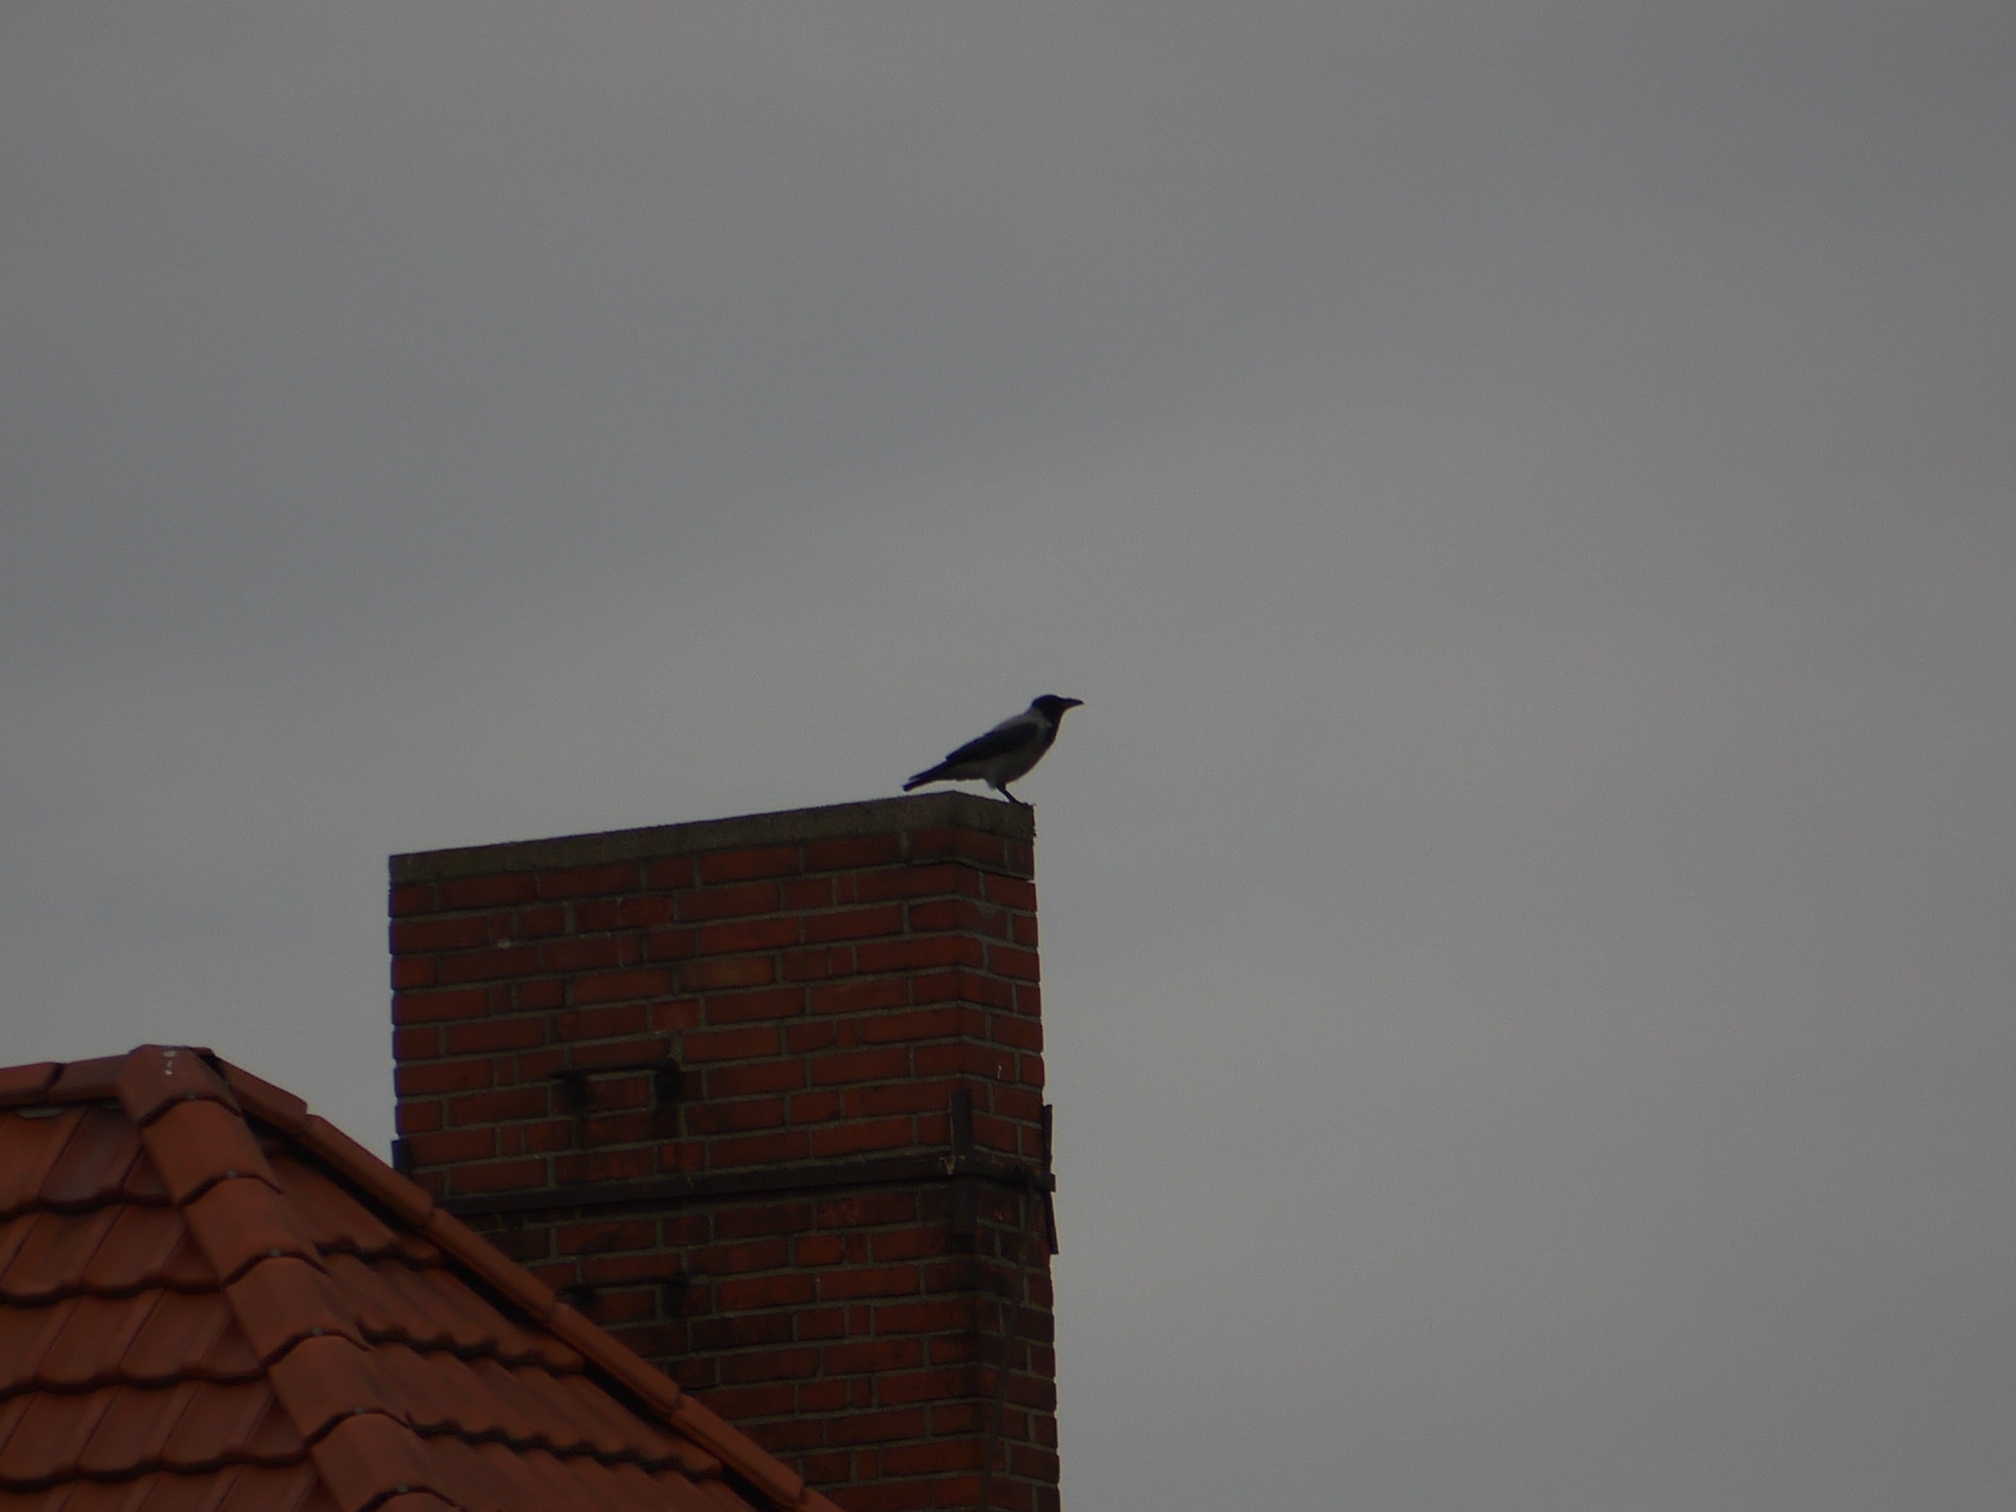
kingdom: Animalia
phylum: Chordata
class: Aves
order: Passeriformes
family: Corvidae
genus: Corvus
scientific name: Corvus cornix
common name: Hooded crow
